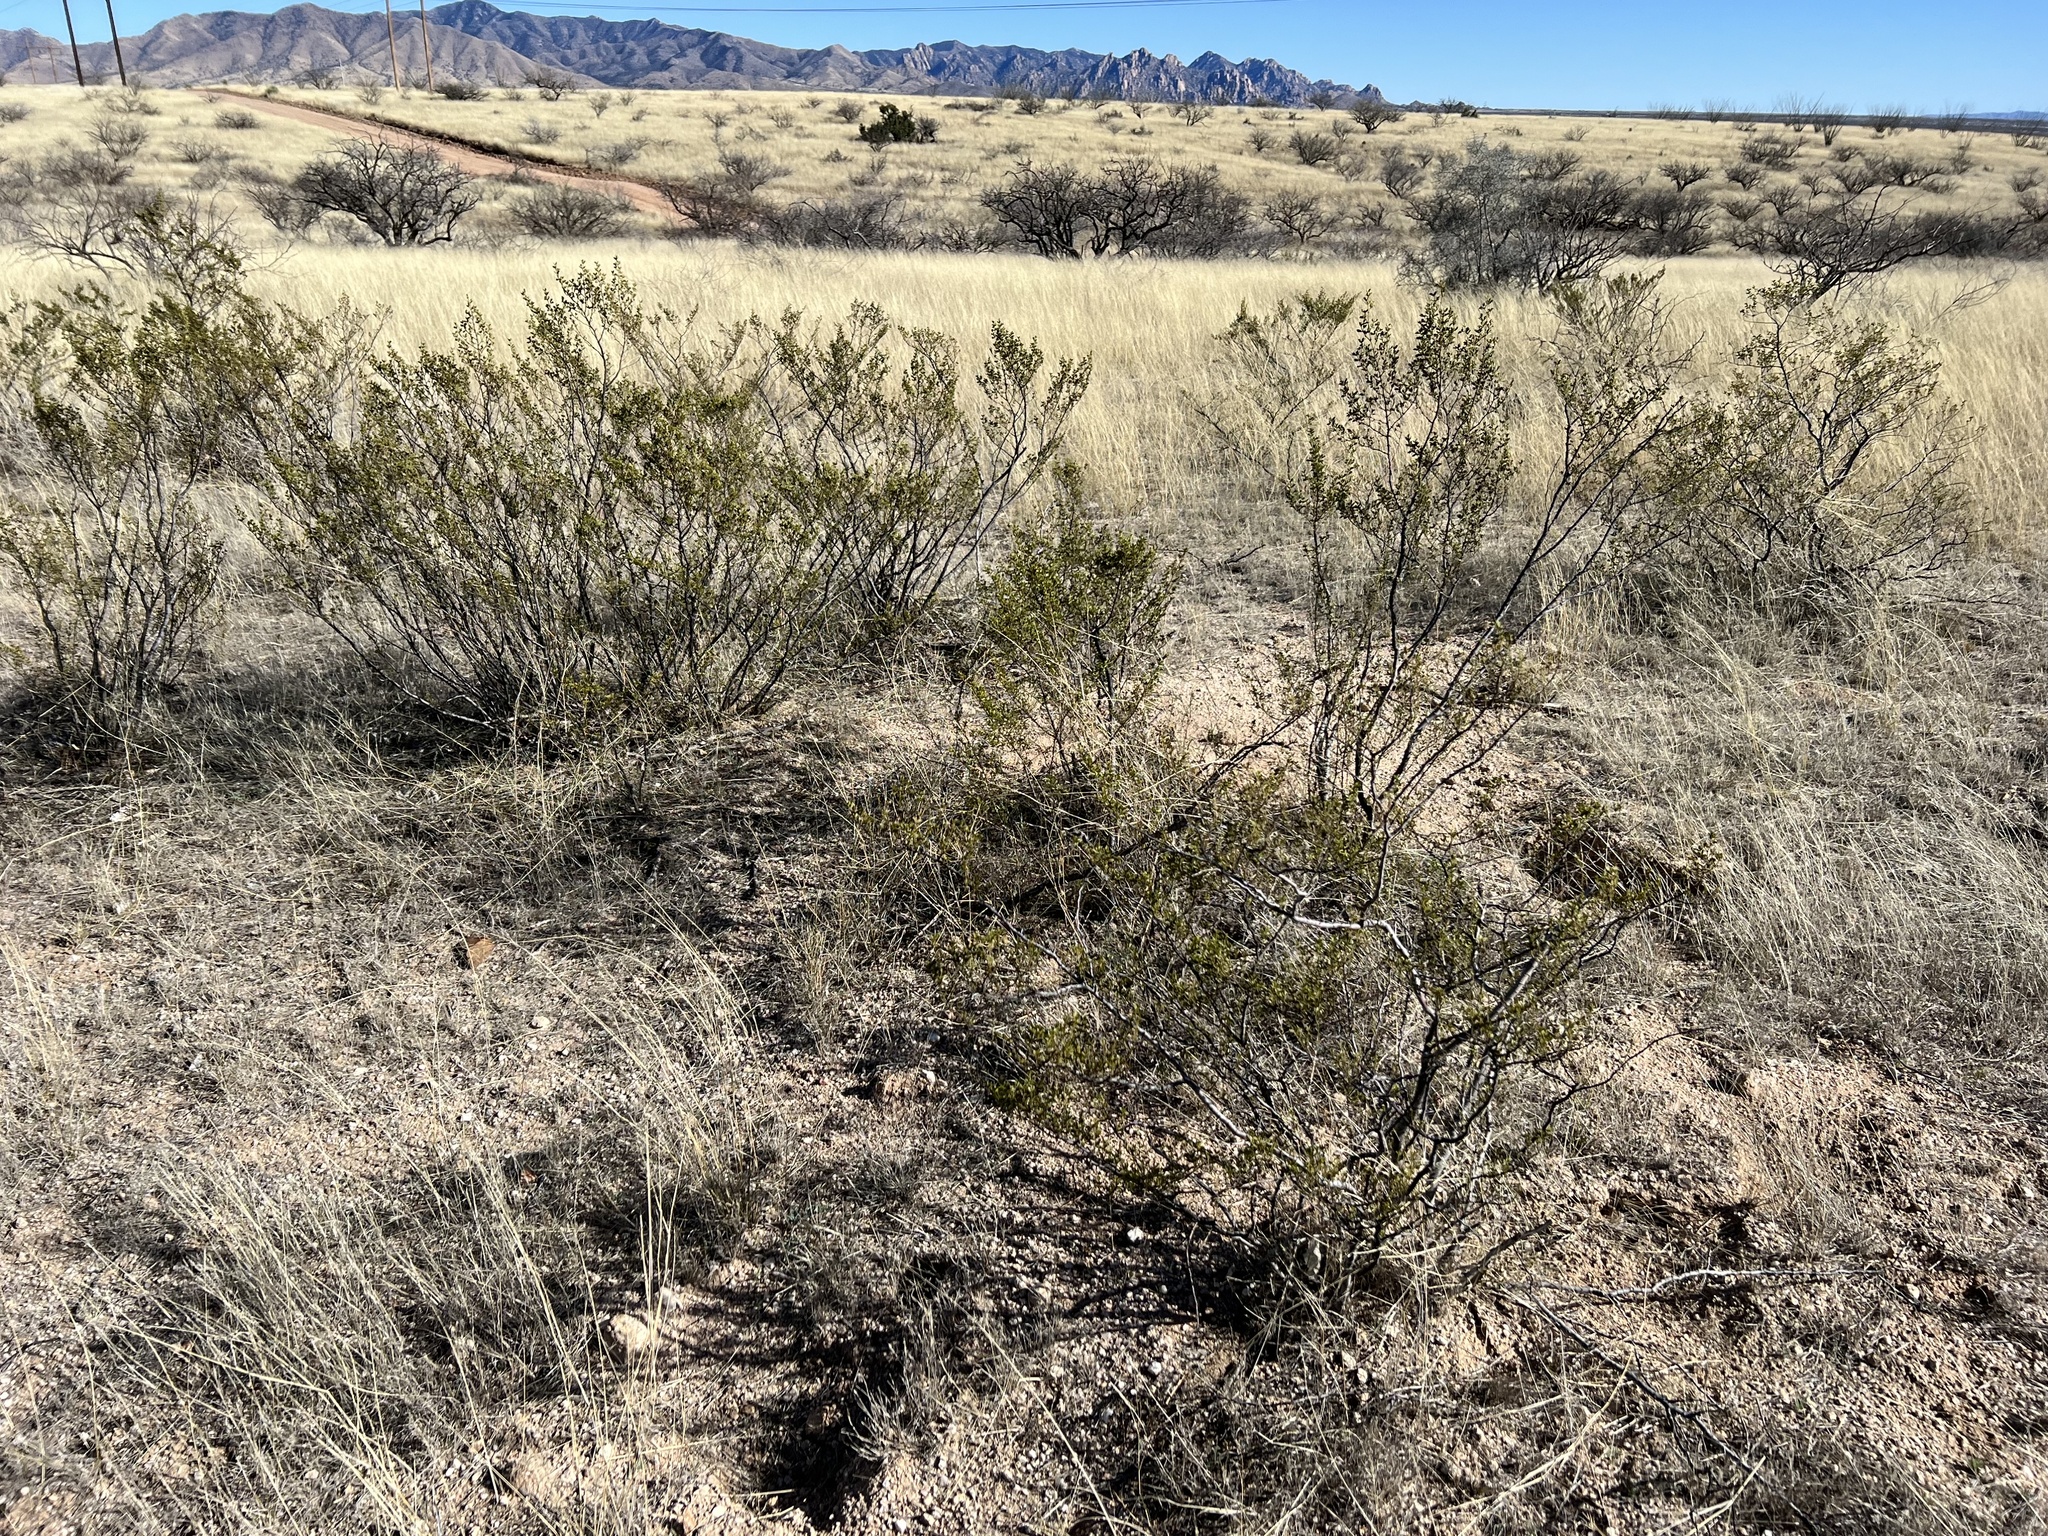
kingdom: Plantae
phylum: Tracheophyta
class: Magnoliopsida
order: Zygophyllales
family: Zygophyllaceae
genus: Larrea
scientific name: Larrea tridentata
